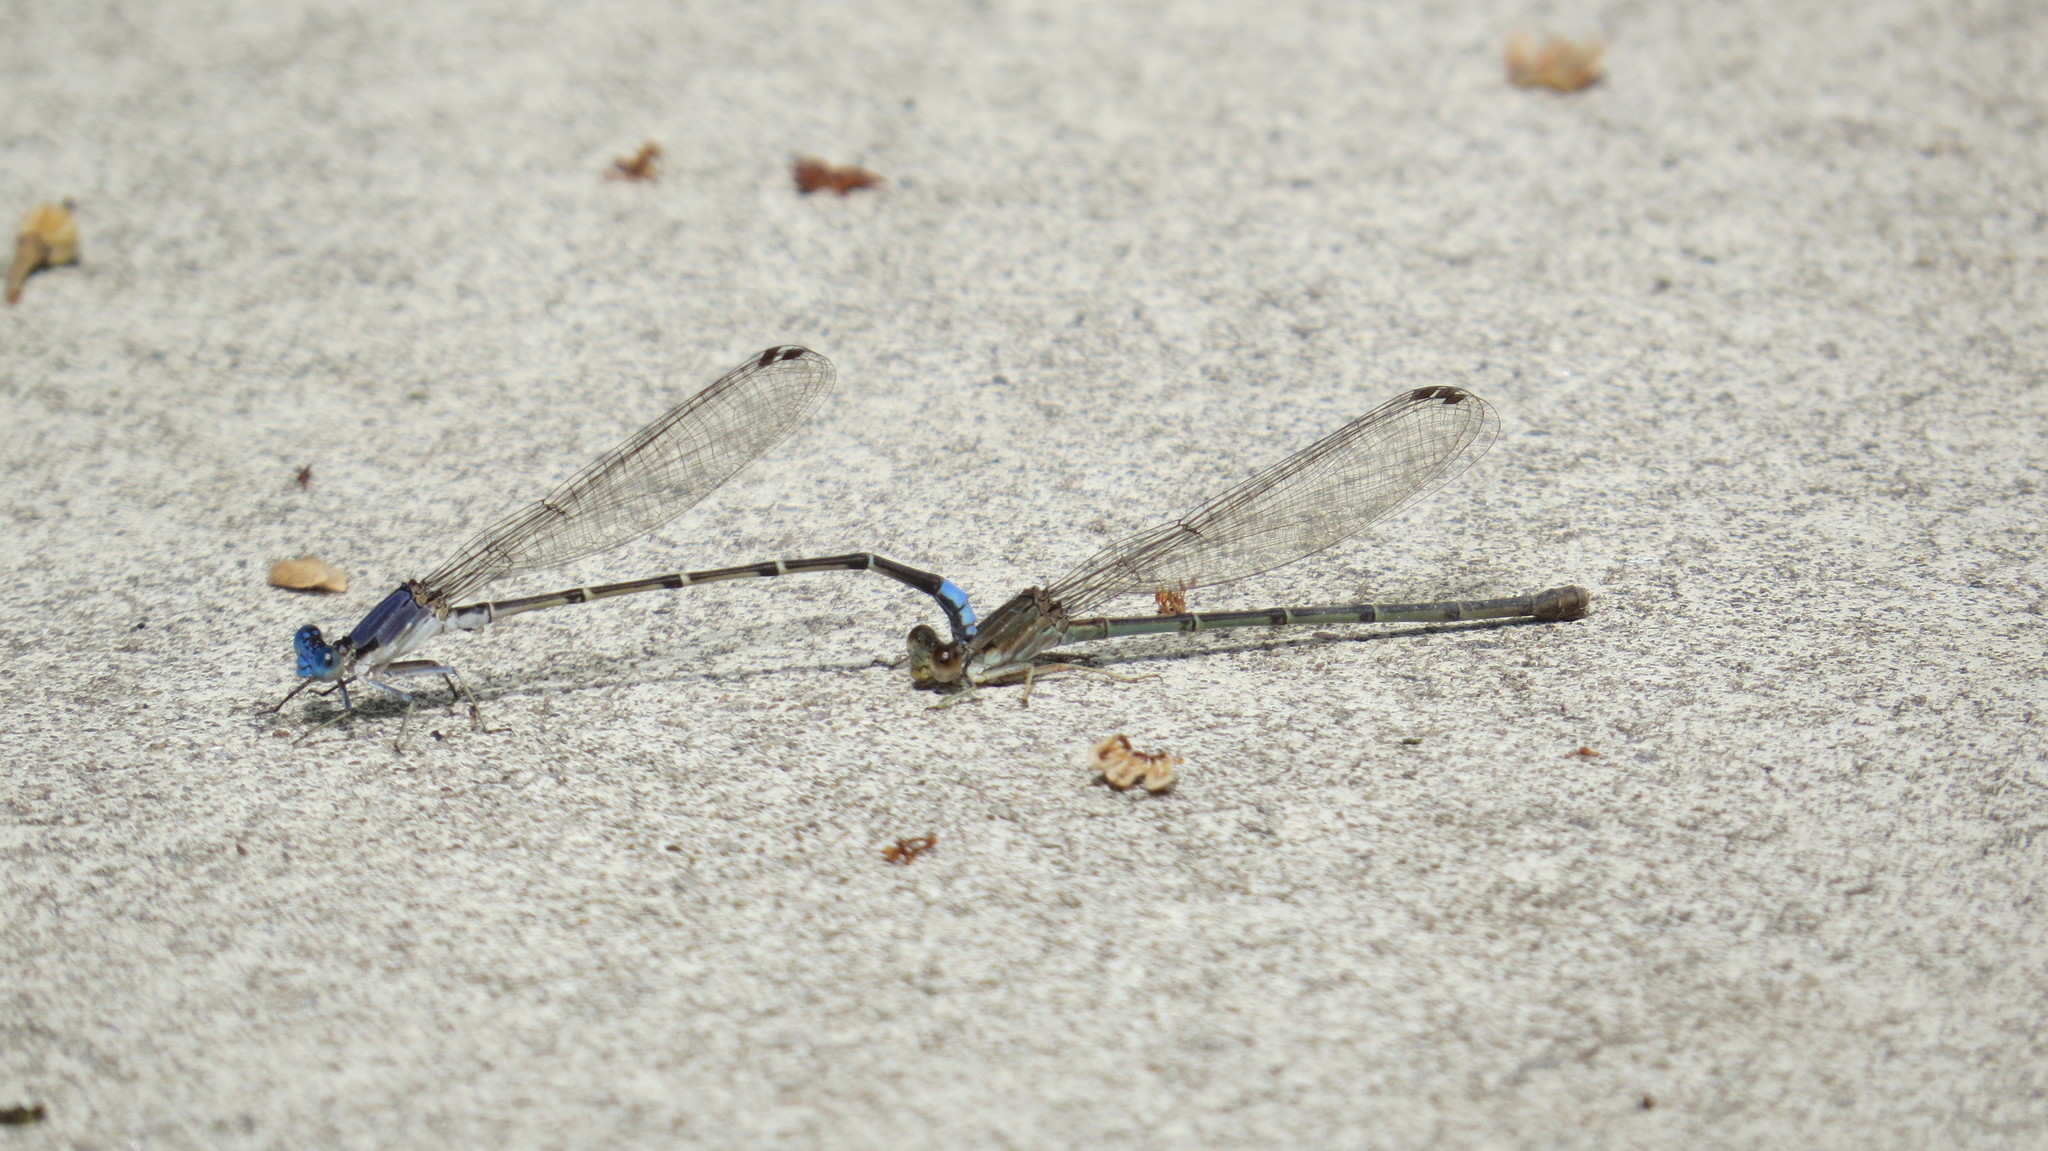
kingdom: Animalia
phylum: Arthropoda
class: Insecta
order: Odonata
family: Coenagrionidae
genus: Argia
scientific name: Argia apicalis
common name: Blue-fronted dancer
